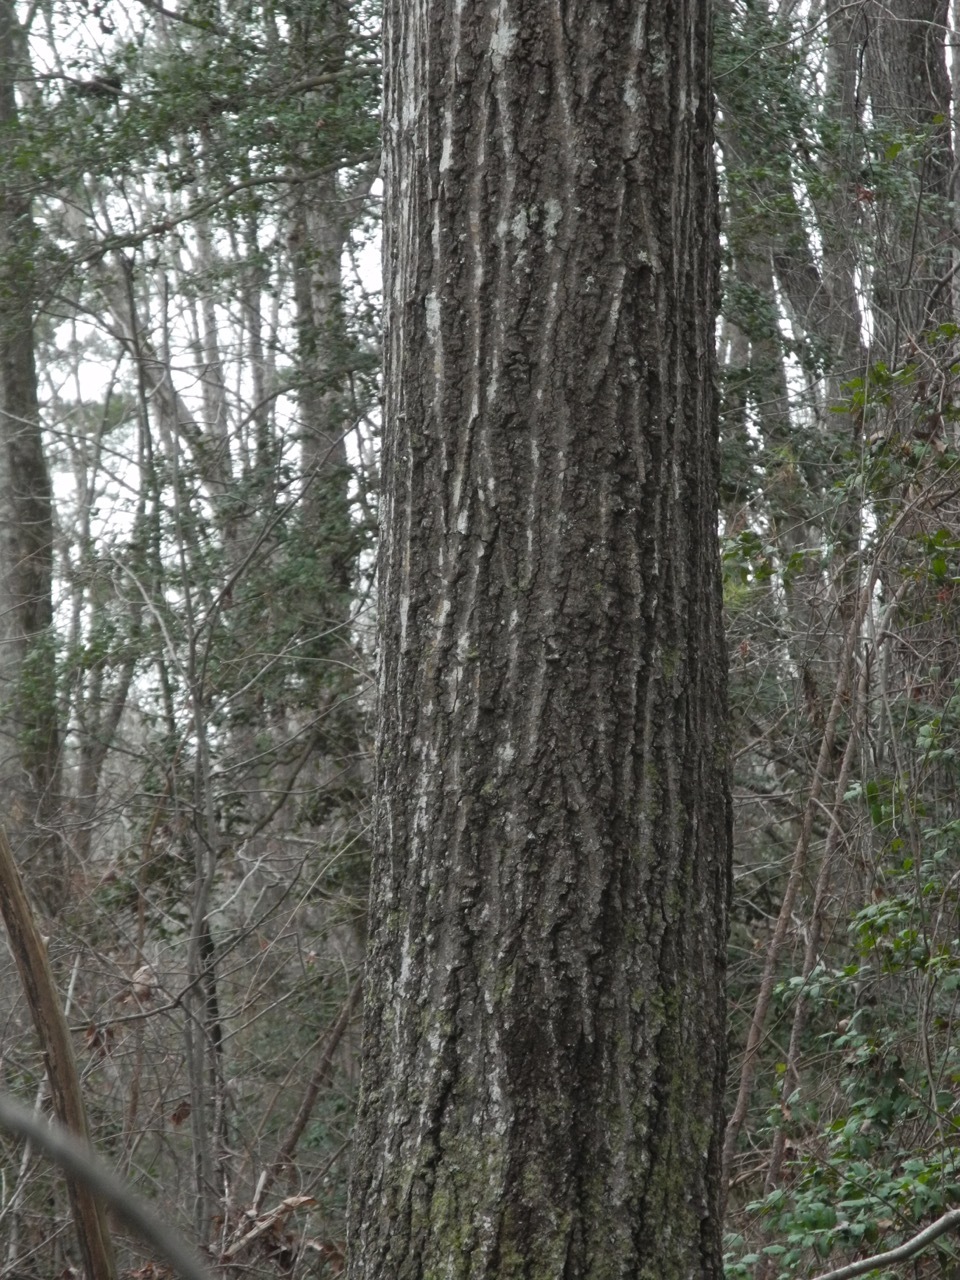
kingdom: Plantae
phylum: Tracheophyta
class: Magnoliopsida
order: Fagales
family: Fagaceae
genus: Quercus
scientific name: Quercus rubra
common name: Red oak
